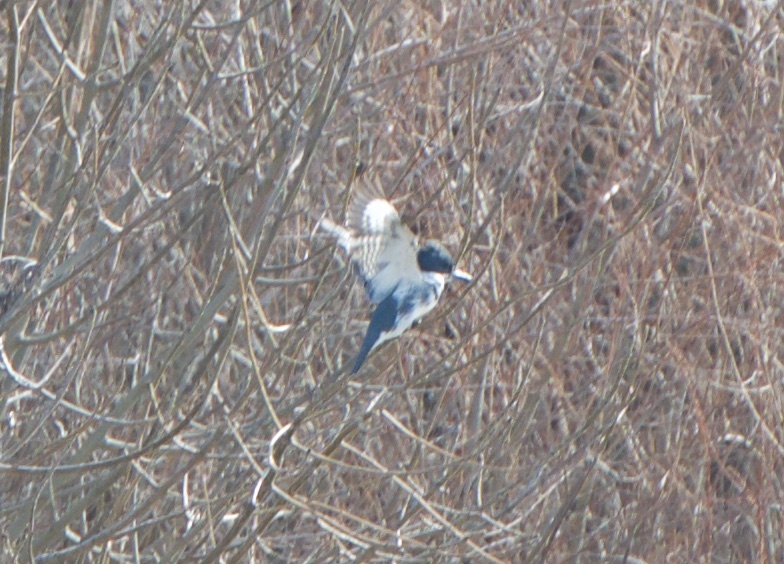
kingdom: Animalia
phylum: Chordata
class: Aves
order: Coraciiformes
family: Alcedinidae
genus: Megaceryle
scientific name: Megaceryle alcyon
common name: Belted kingfisher
